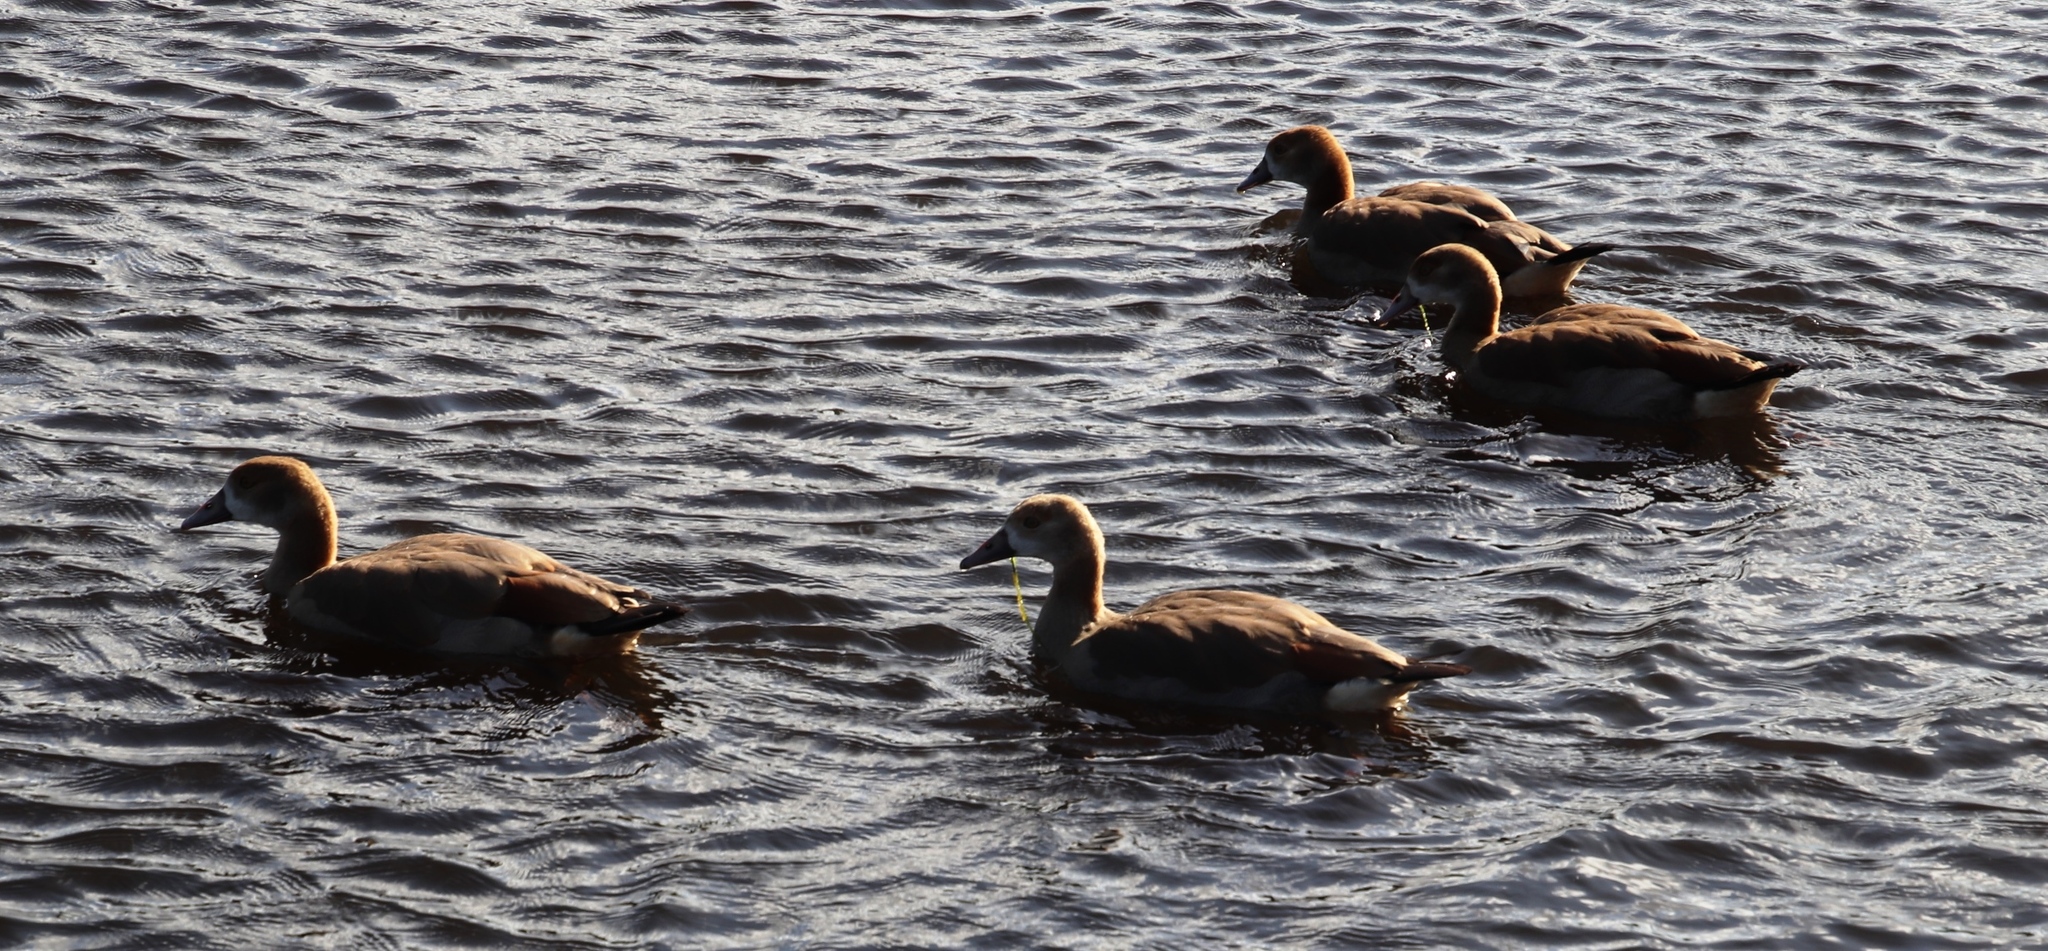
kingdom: Animalia
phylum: Chordata
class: Aves
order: Anseriformes
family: Anatidae
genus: Alopochen
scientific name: Alopochen aegyptiaca
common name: Egyptian goose
